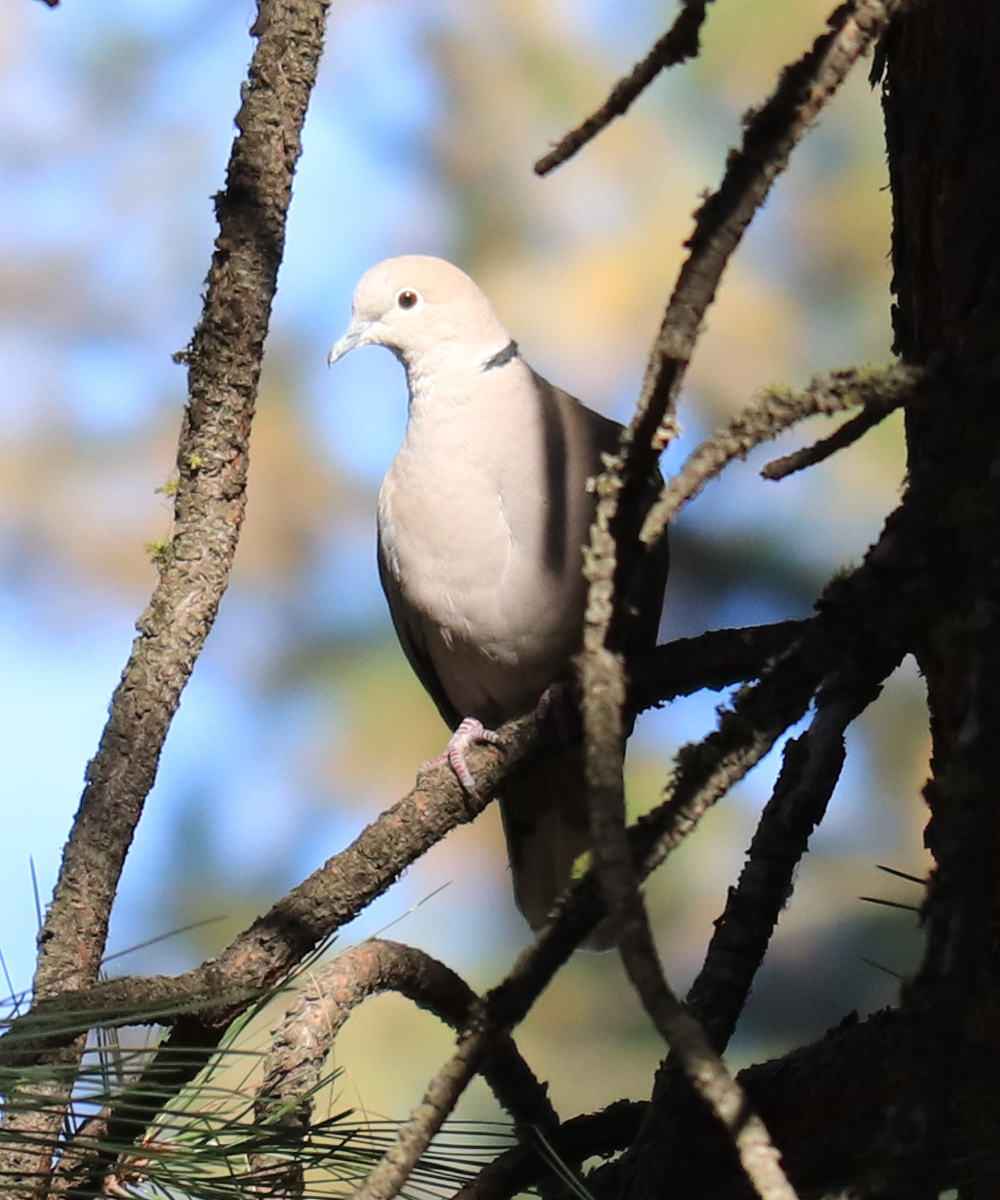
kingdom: Animalia
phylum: Chordata
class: Aves
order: Columbiformes
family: Columbidae
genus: Streptopelia
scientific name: Streptopelia decaocto
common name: Eurasian collared dove
